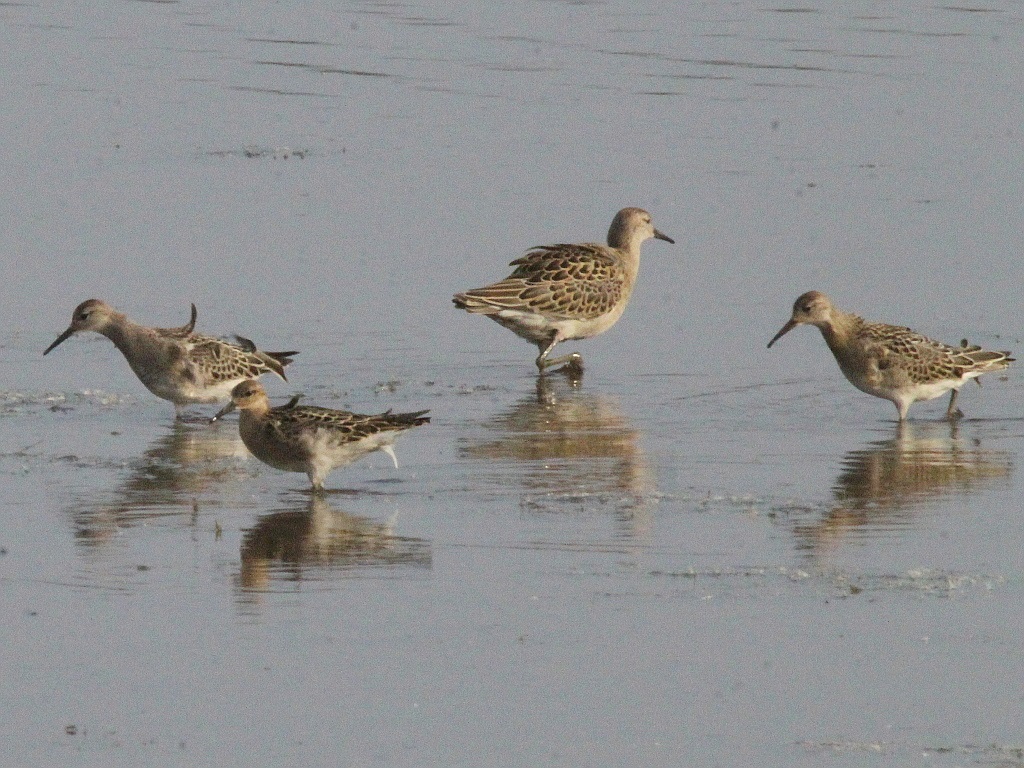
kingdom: Animalia
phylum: Chordata
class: Aves
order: Charadriiformes
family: Scolopacidae
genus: Calidris
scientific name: Calidris pugnax
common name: Ruff
